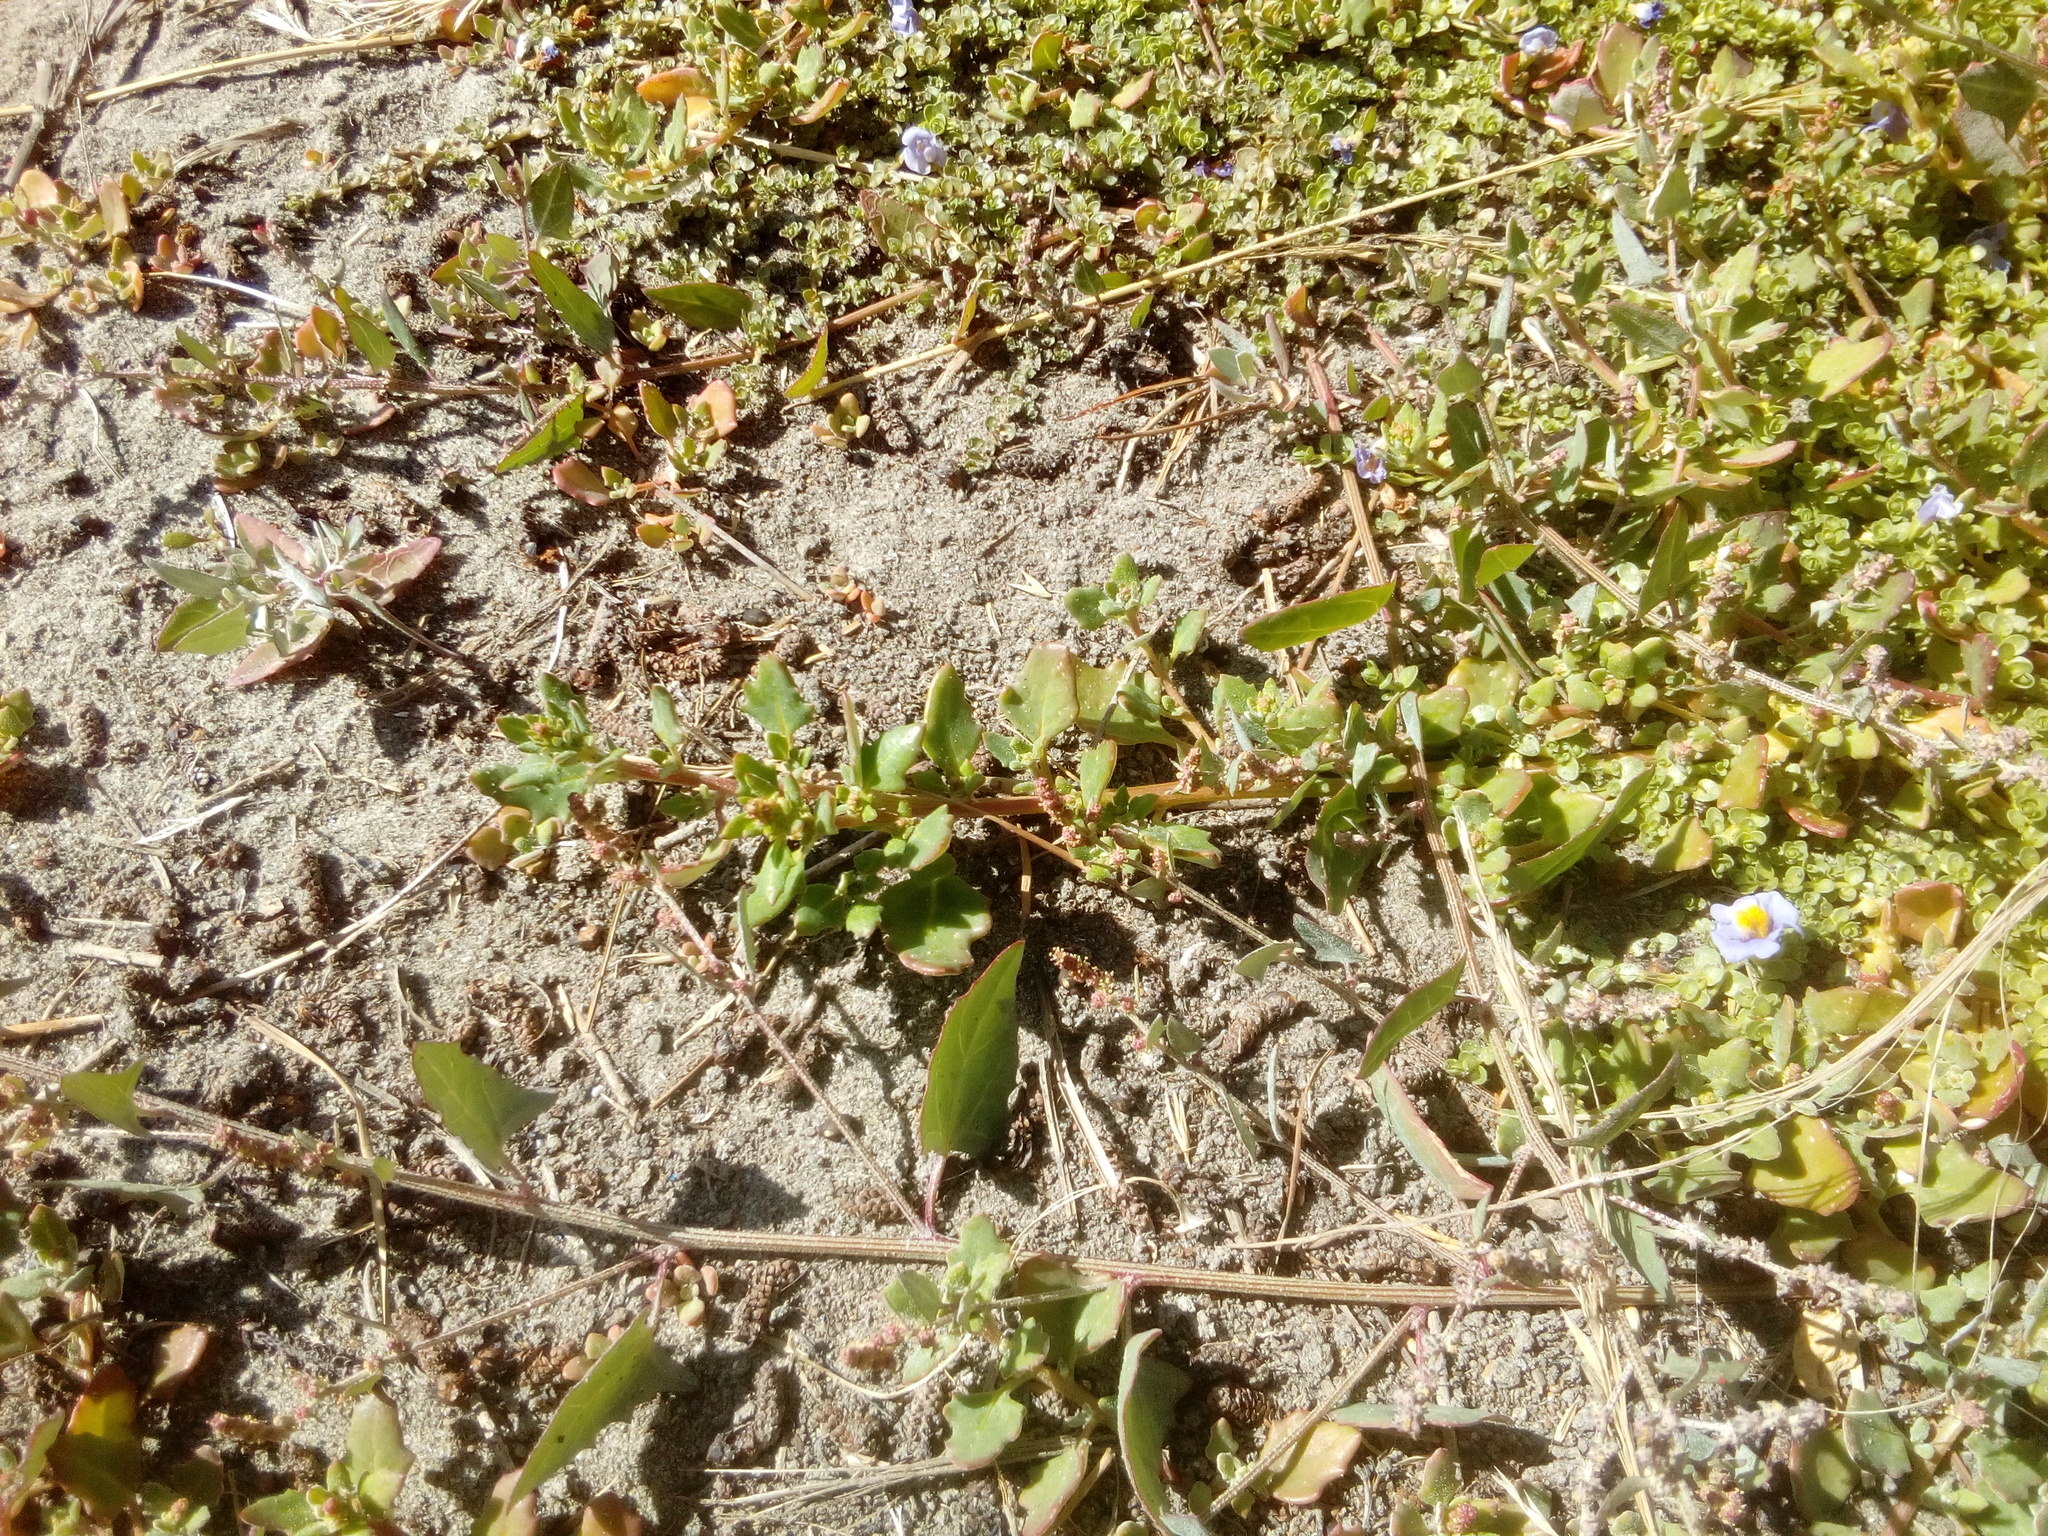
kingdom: Plantae
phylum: Tracheophyta
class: Magnoliopsida
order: Caryophyllales
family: Amaranthaceae
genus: Oxybasis
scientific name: Oxybasis ambigua
